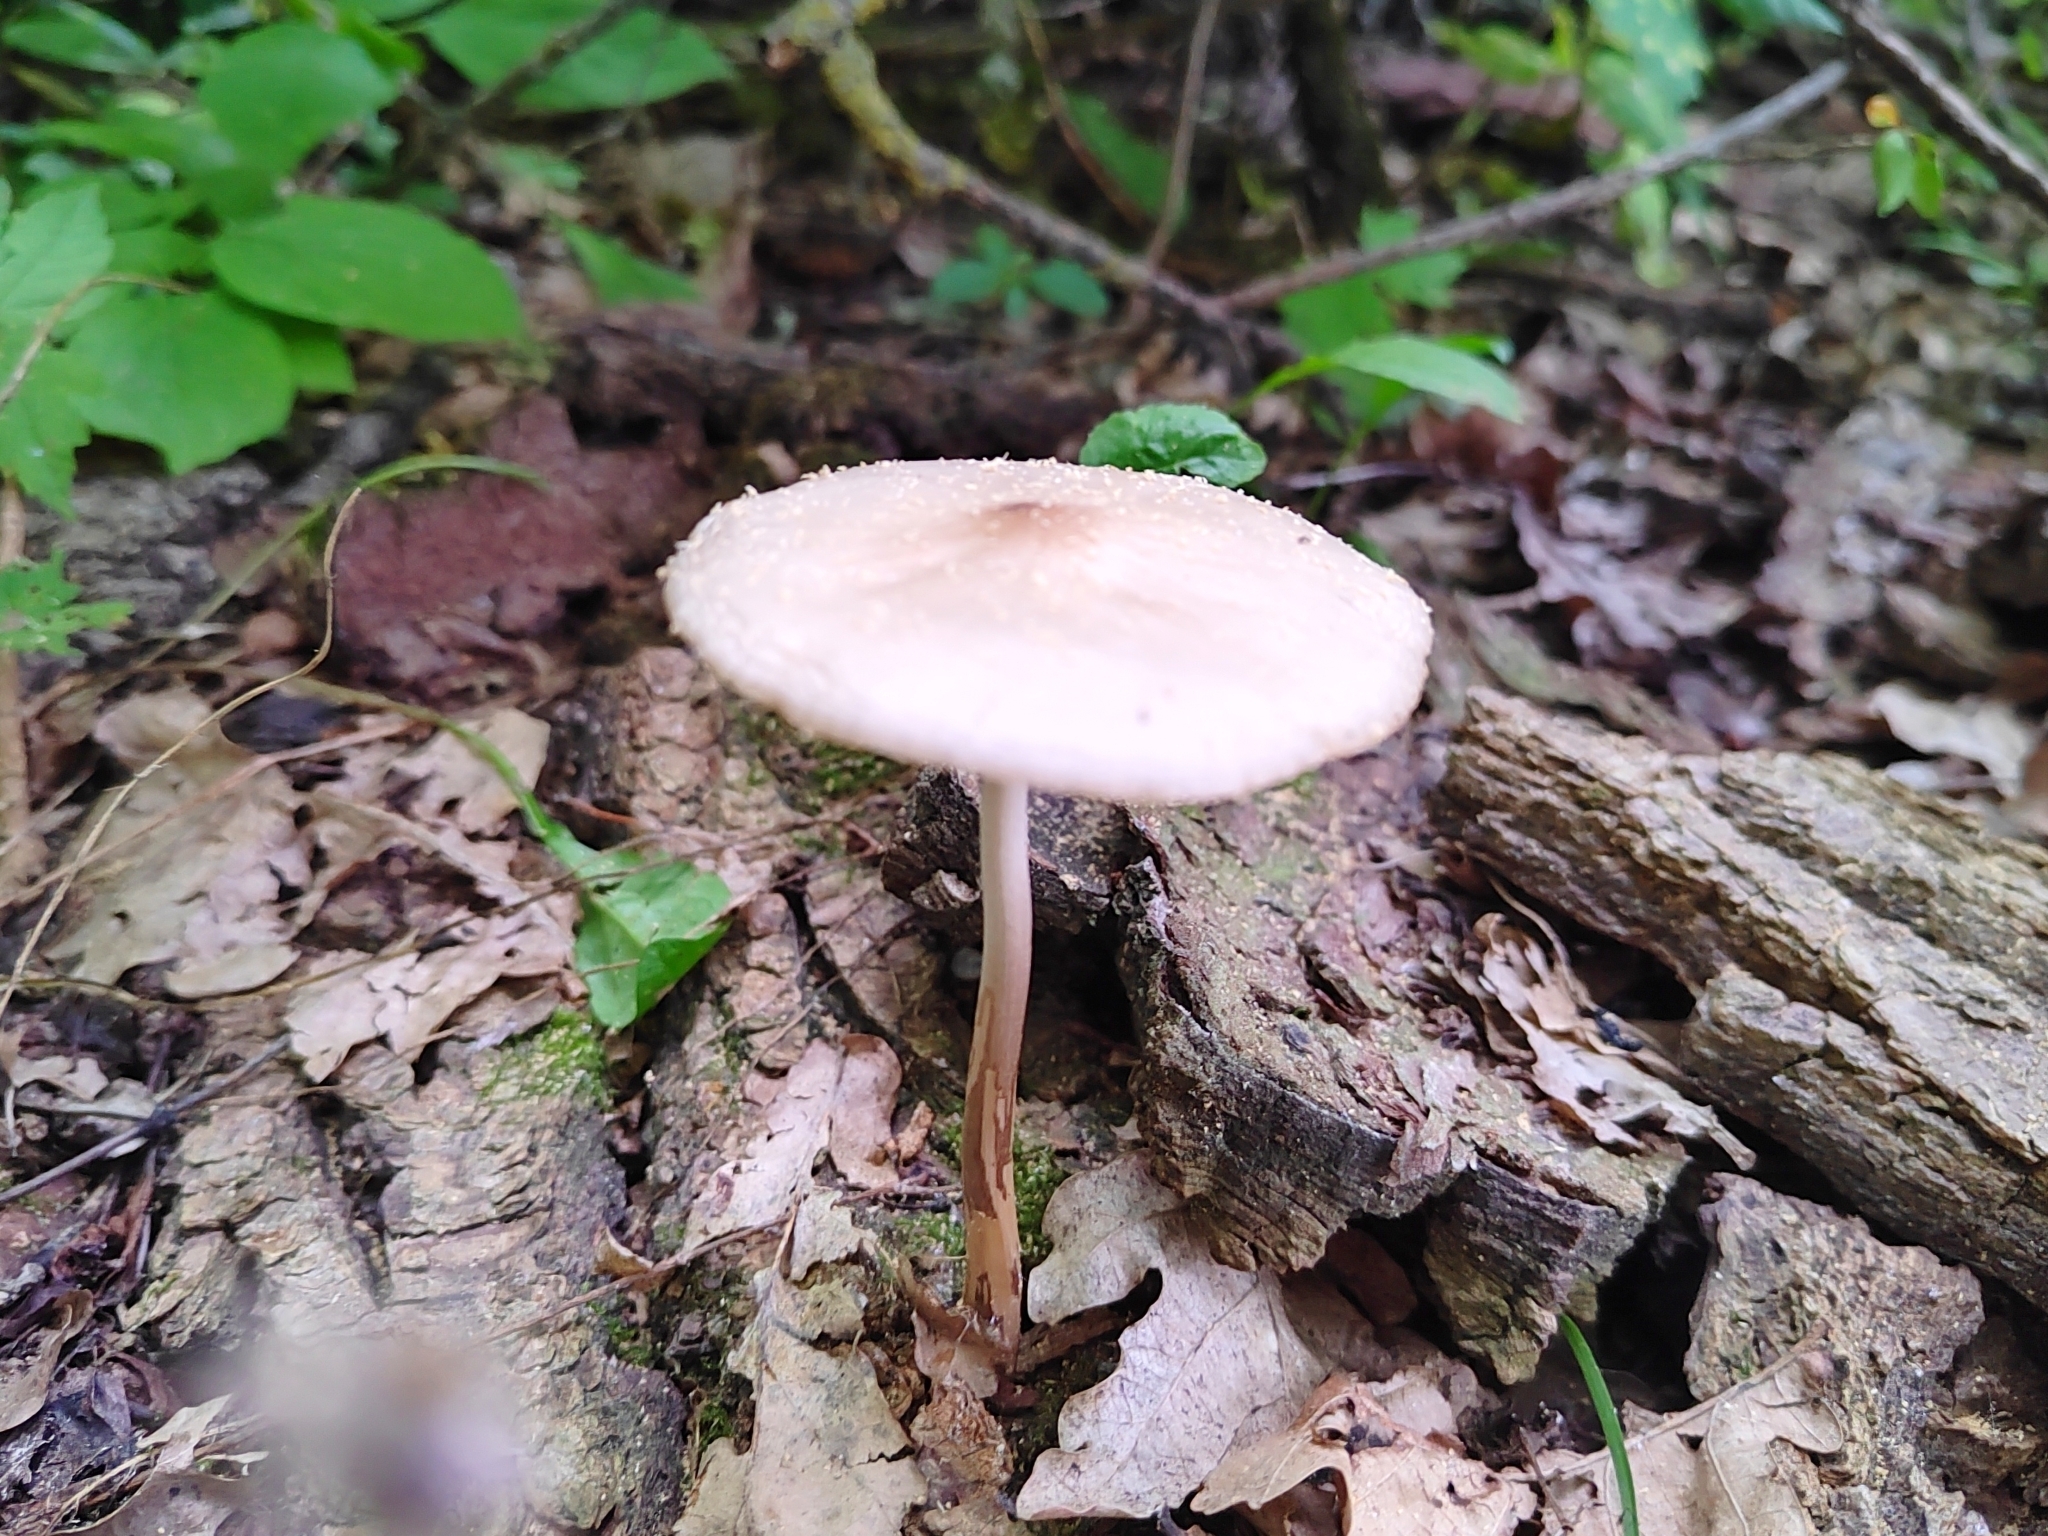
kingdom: Fungi
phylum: Basidiomycota
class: Agaricomycetes
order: Agaricales
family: Physalacriaceae
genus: Hymenopellis
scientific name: Hymenopellis radicata
